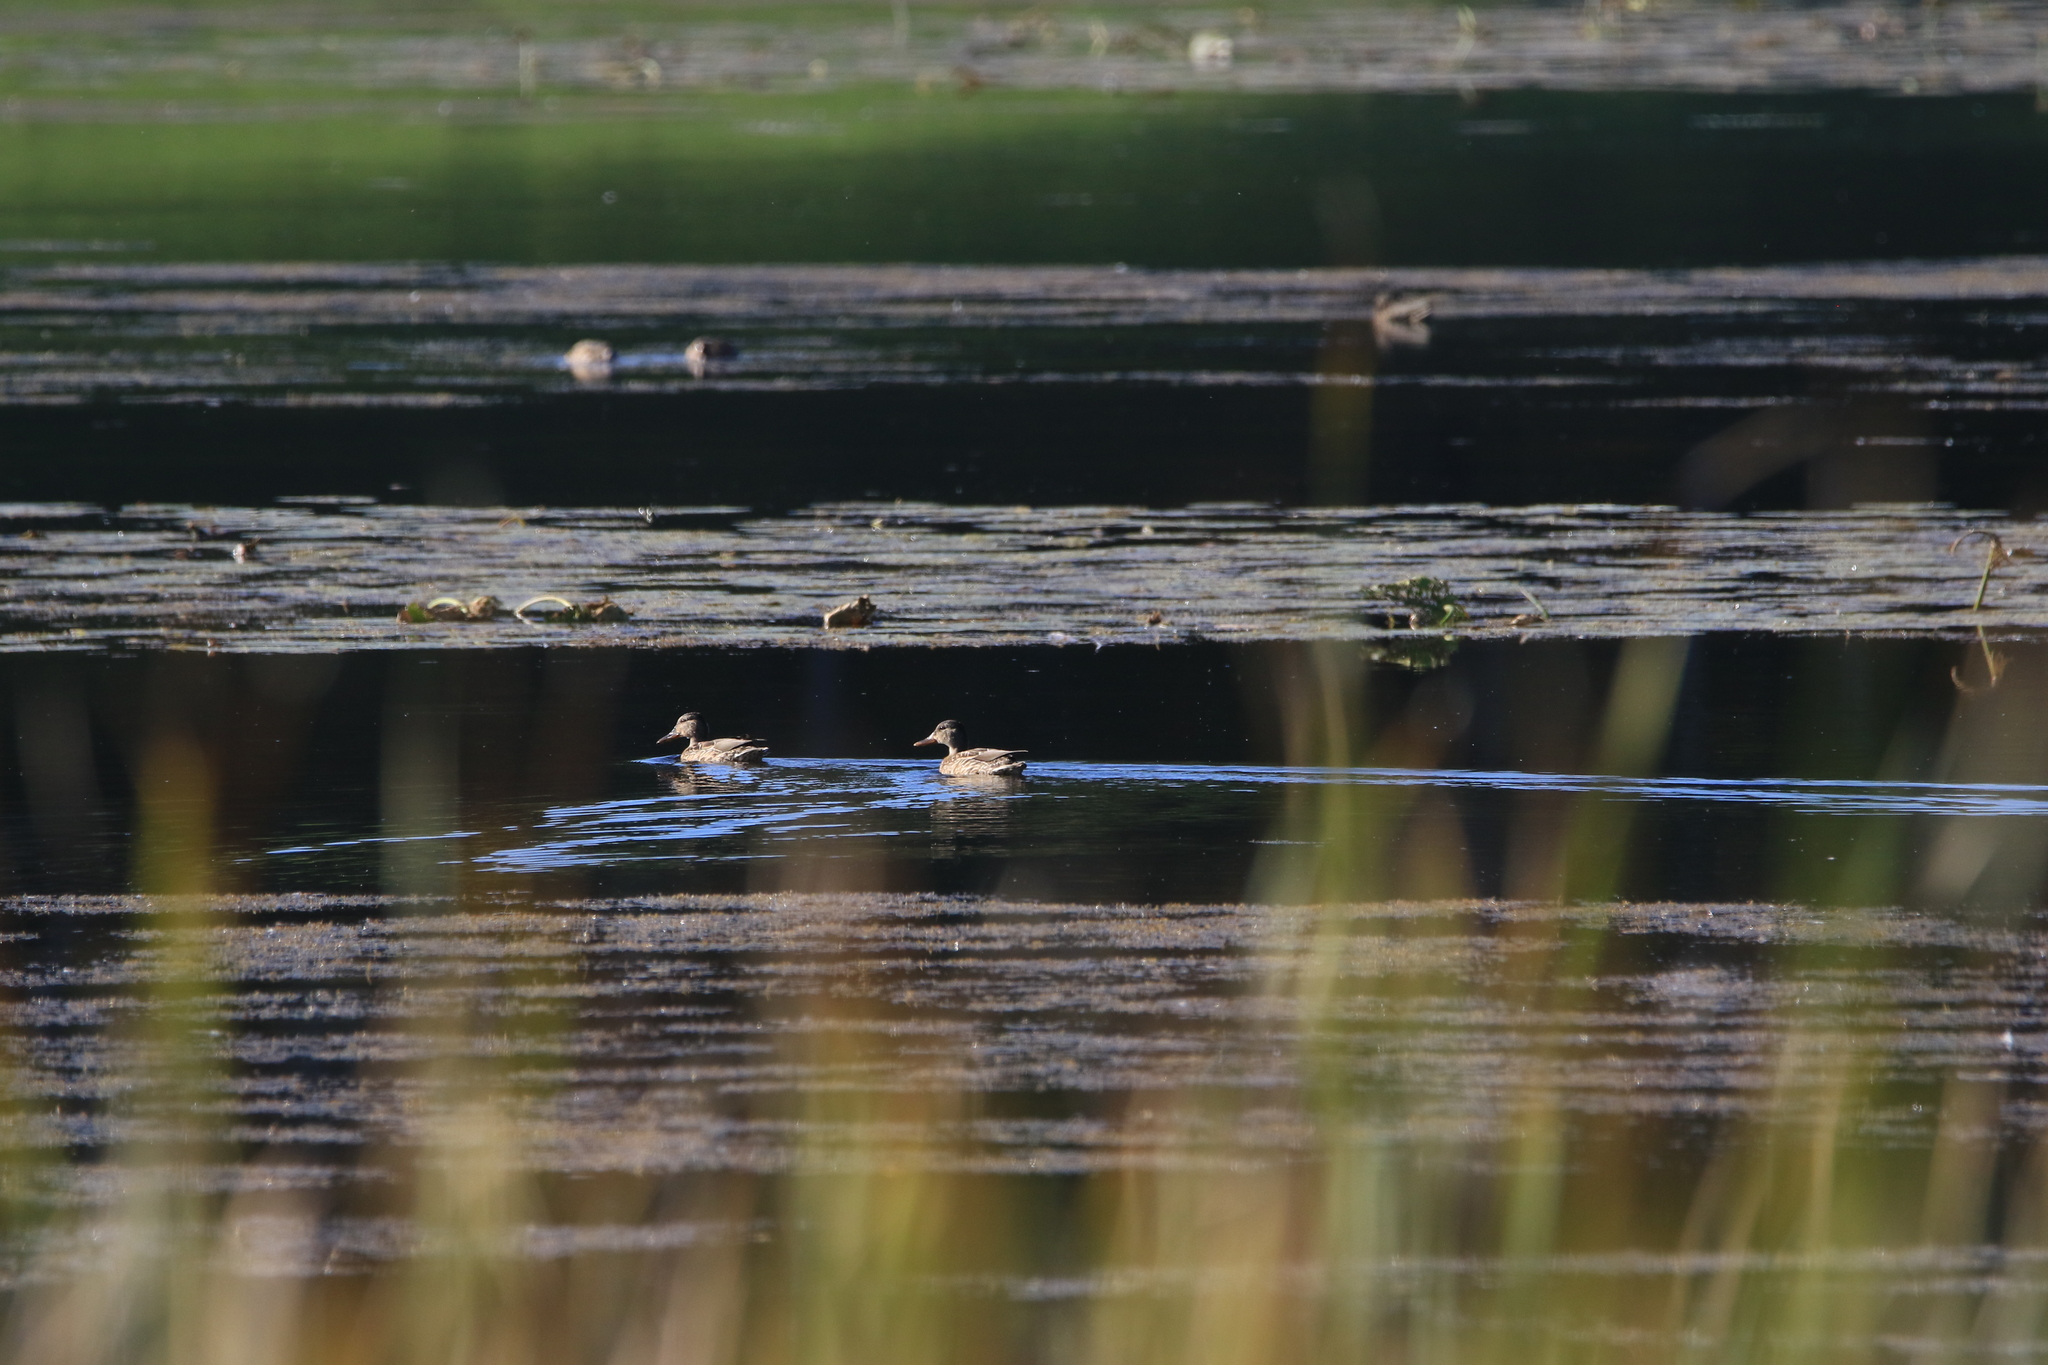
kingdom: Animalia
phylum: Chordata
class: Aves
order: Anseriformes
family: Anatidae
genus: Anas
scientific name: Anas platyrhynchos
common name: Mallard
